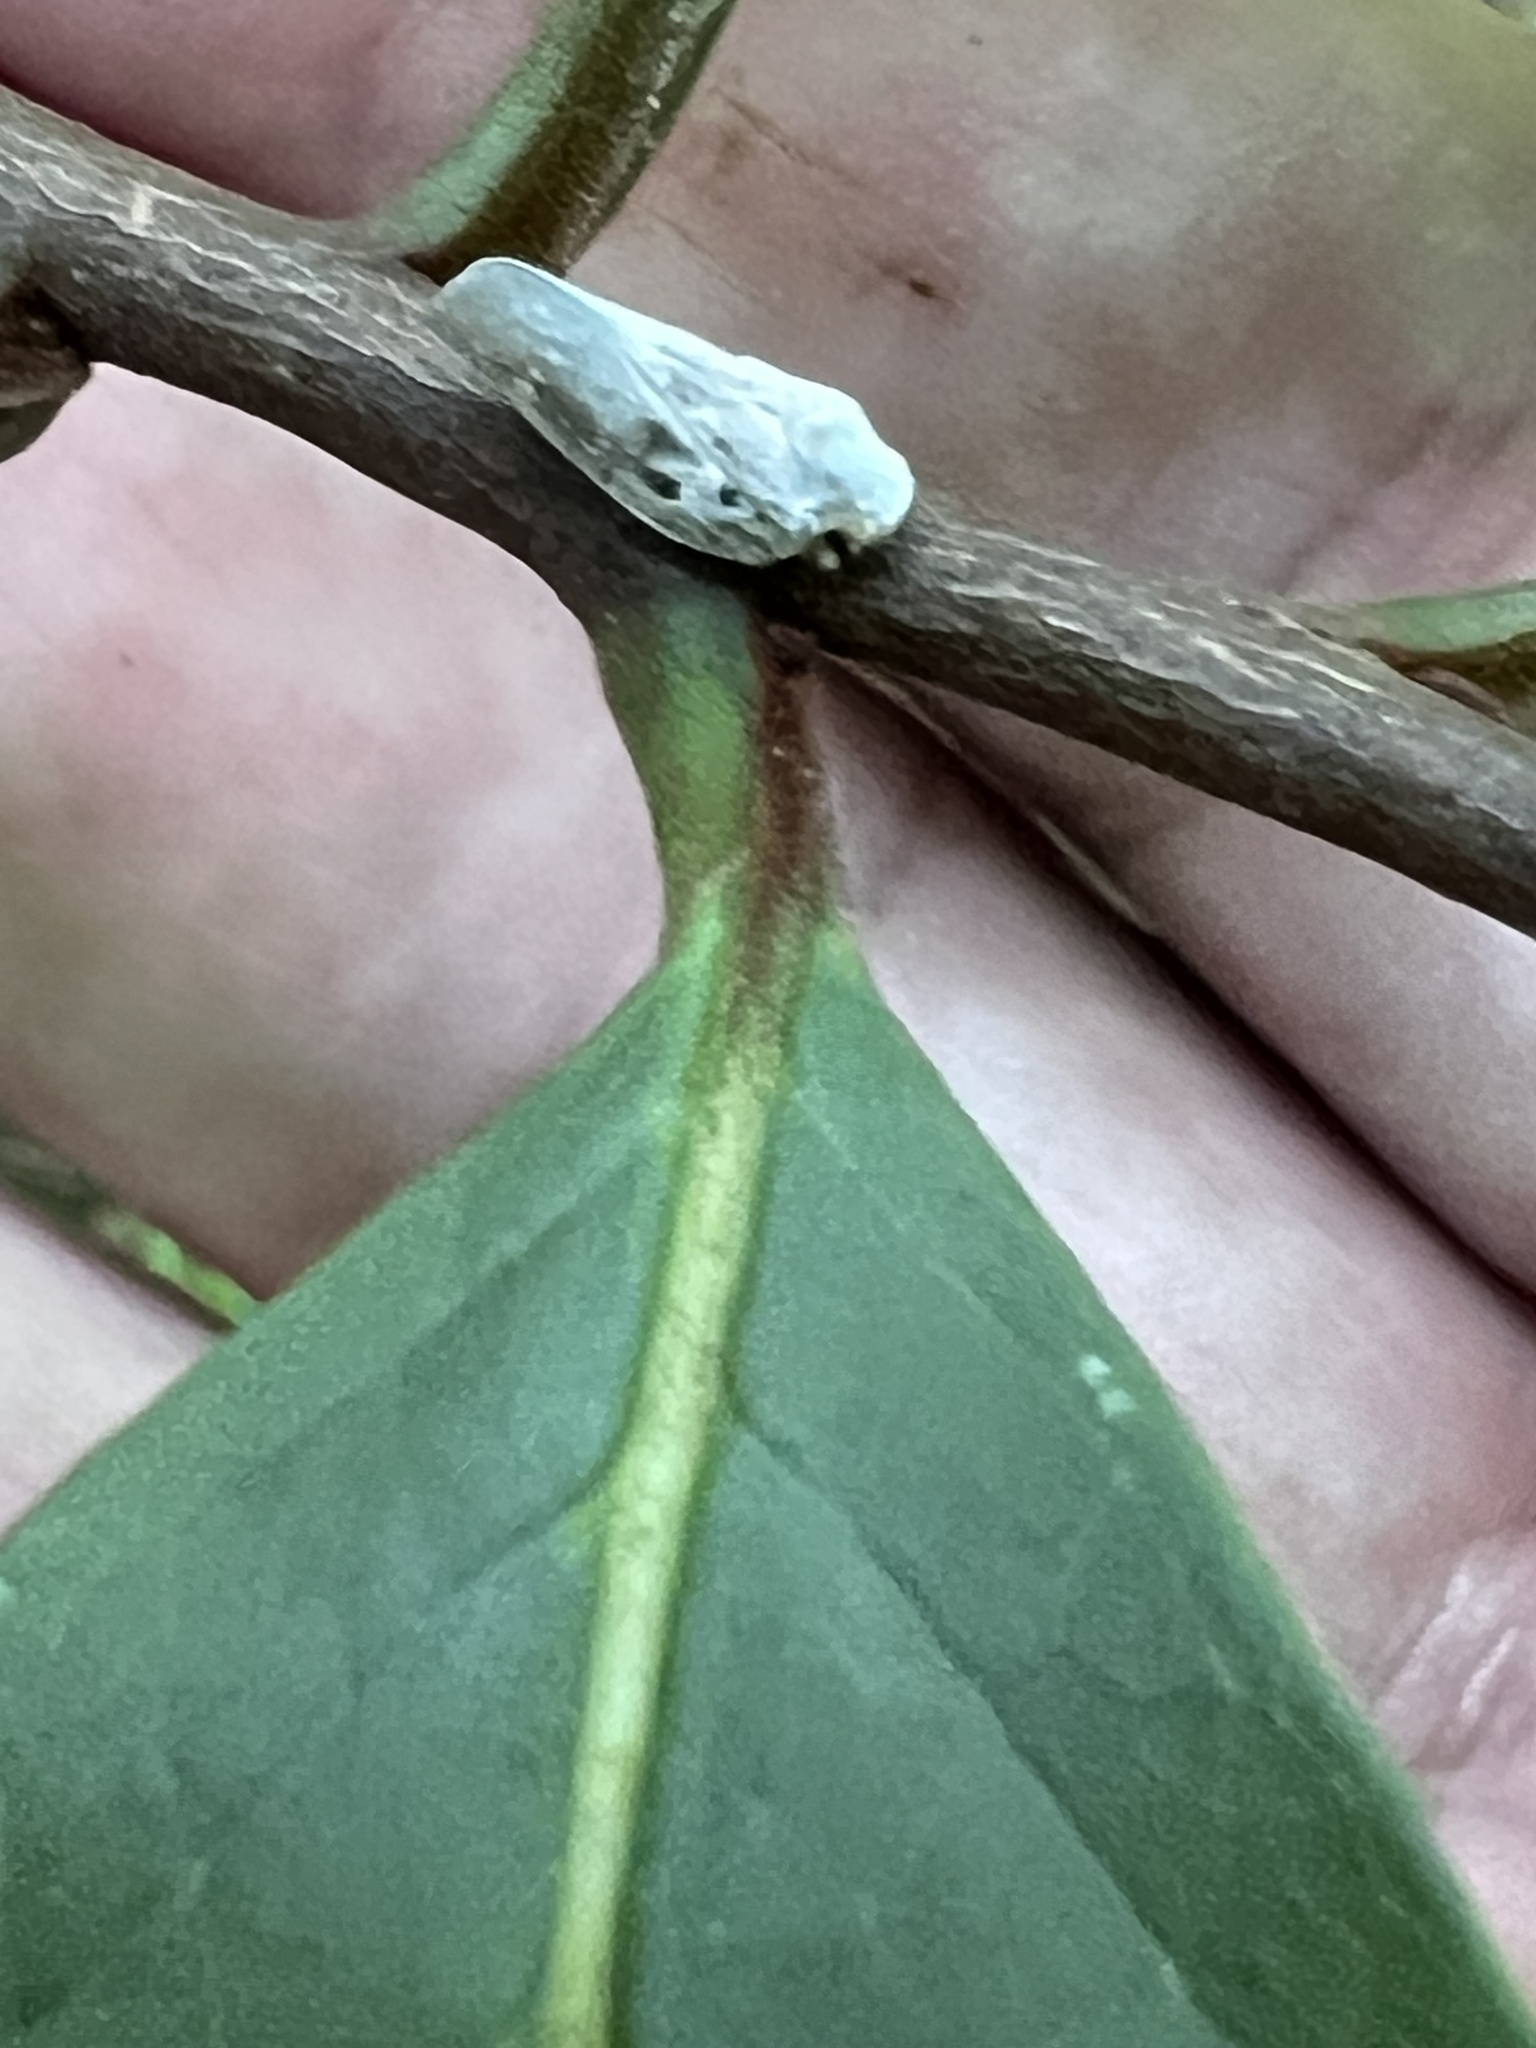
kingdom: Animalia
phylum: Arthropoda
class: Insecta
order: Hemiptera
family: Flatidae
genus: Metcalfa
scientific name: Metcalfa pruinosa
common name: Citrus flatid planthopper
